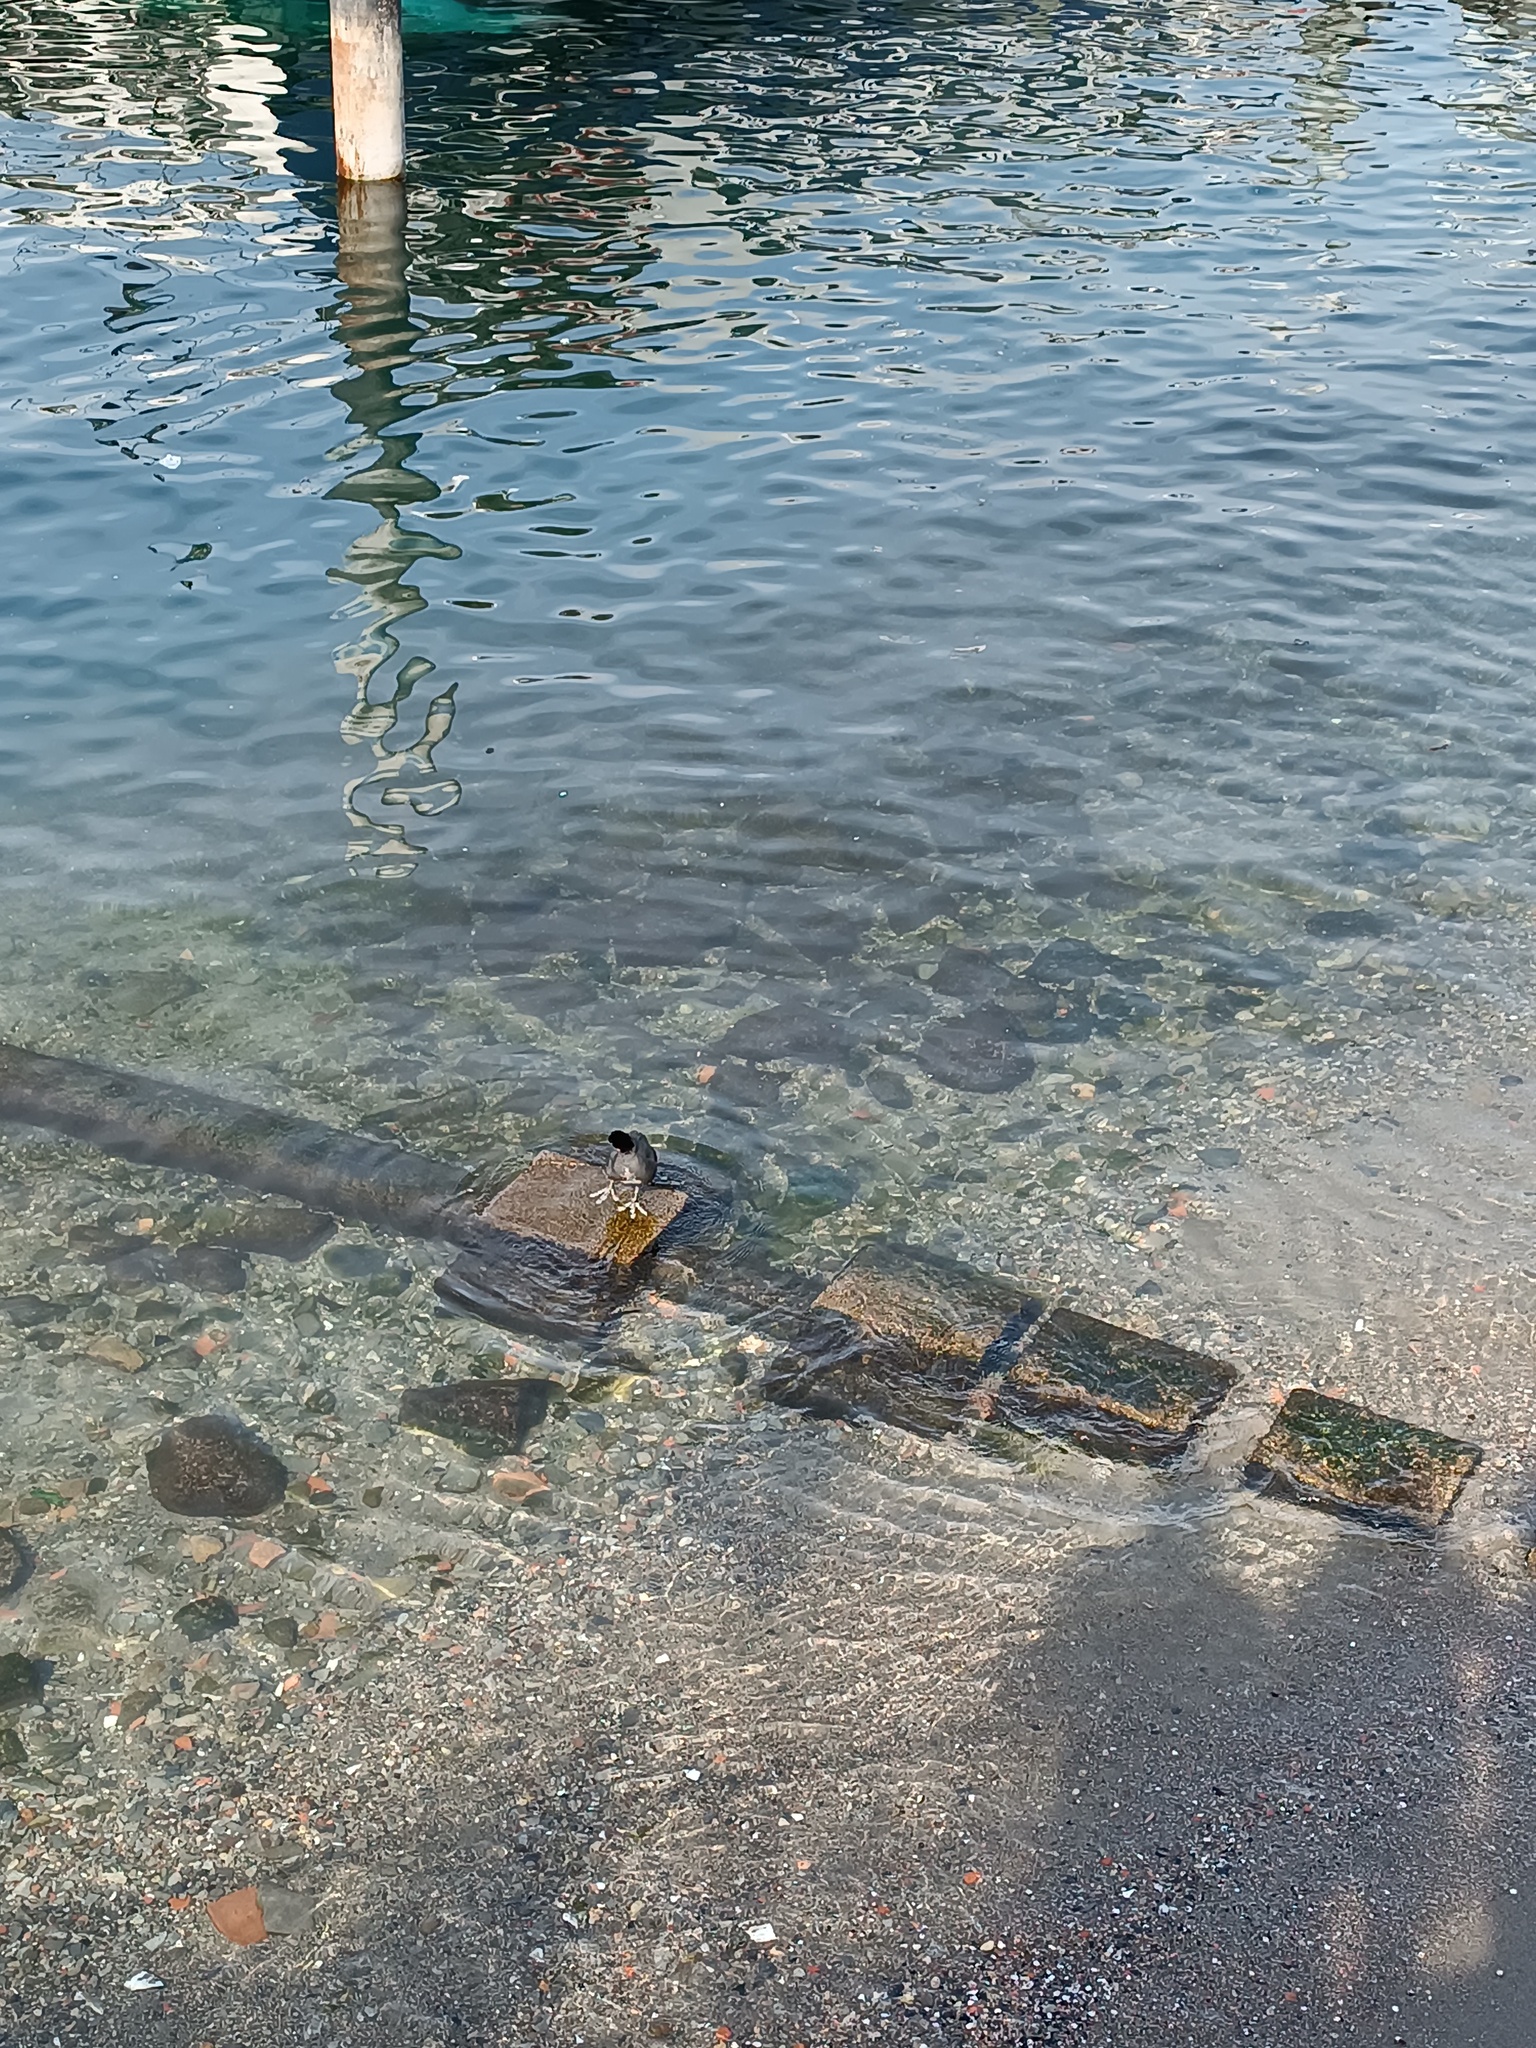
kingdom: Animalia
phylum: Chordata
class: Aves
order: Gruiformes
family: Rallidae
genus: Fulica
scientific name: Fulica atra
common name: Eurasian coot
